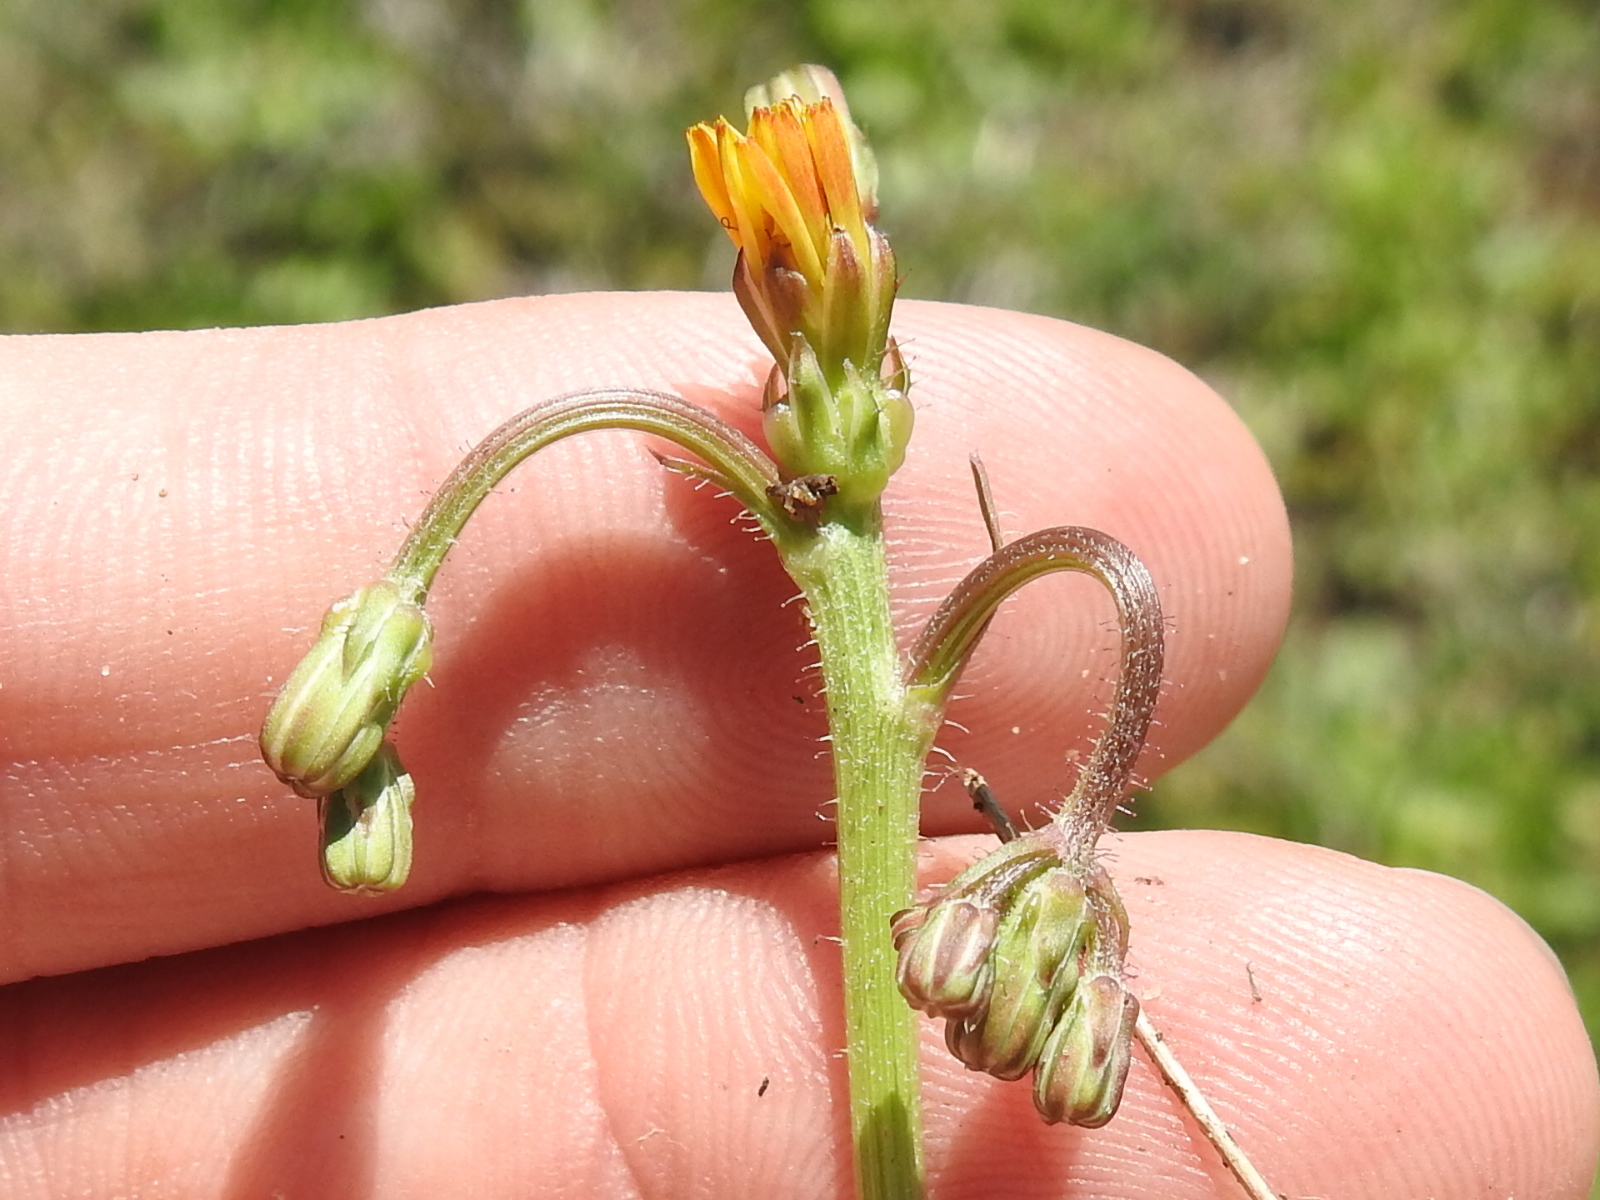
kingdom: Plantae
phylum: Tracheophyta
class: Magnoliopsida
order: Asterales
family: Asteraceae
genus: Crepis
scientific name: Crepis zacintha
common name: Striped hawksbeard
